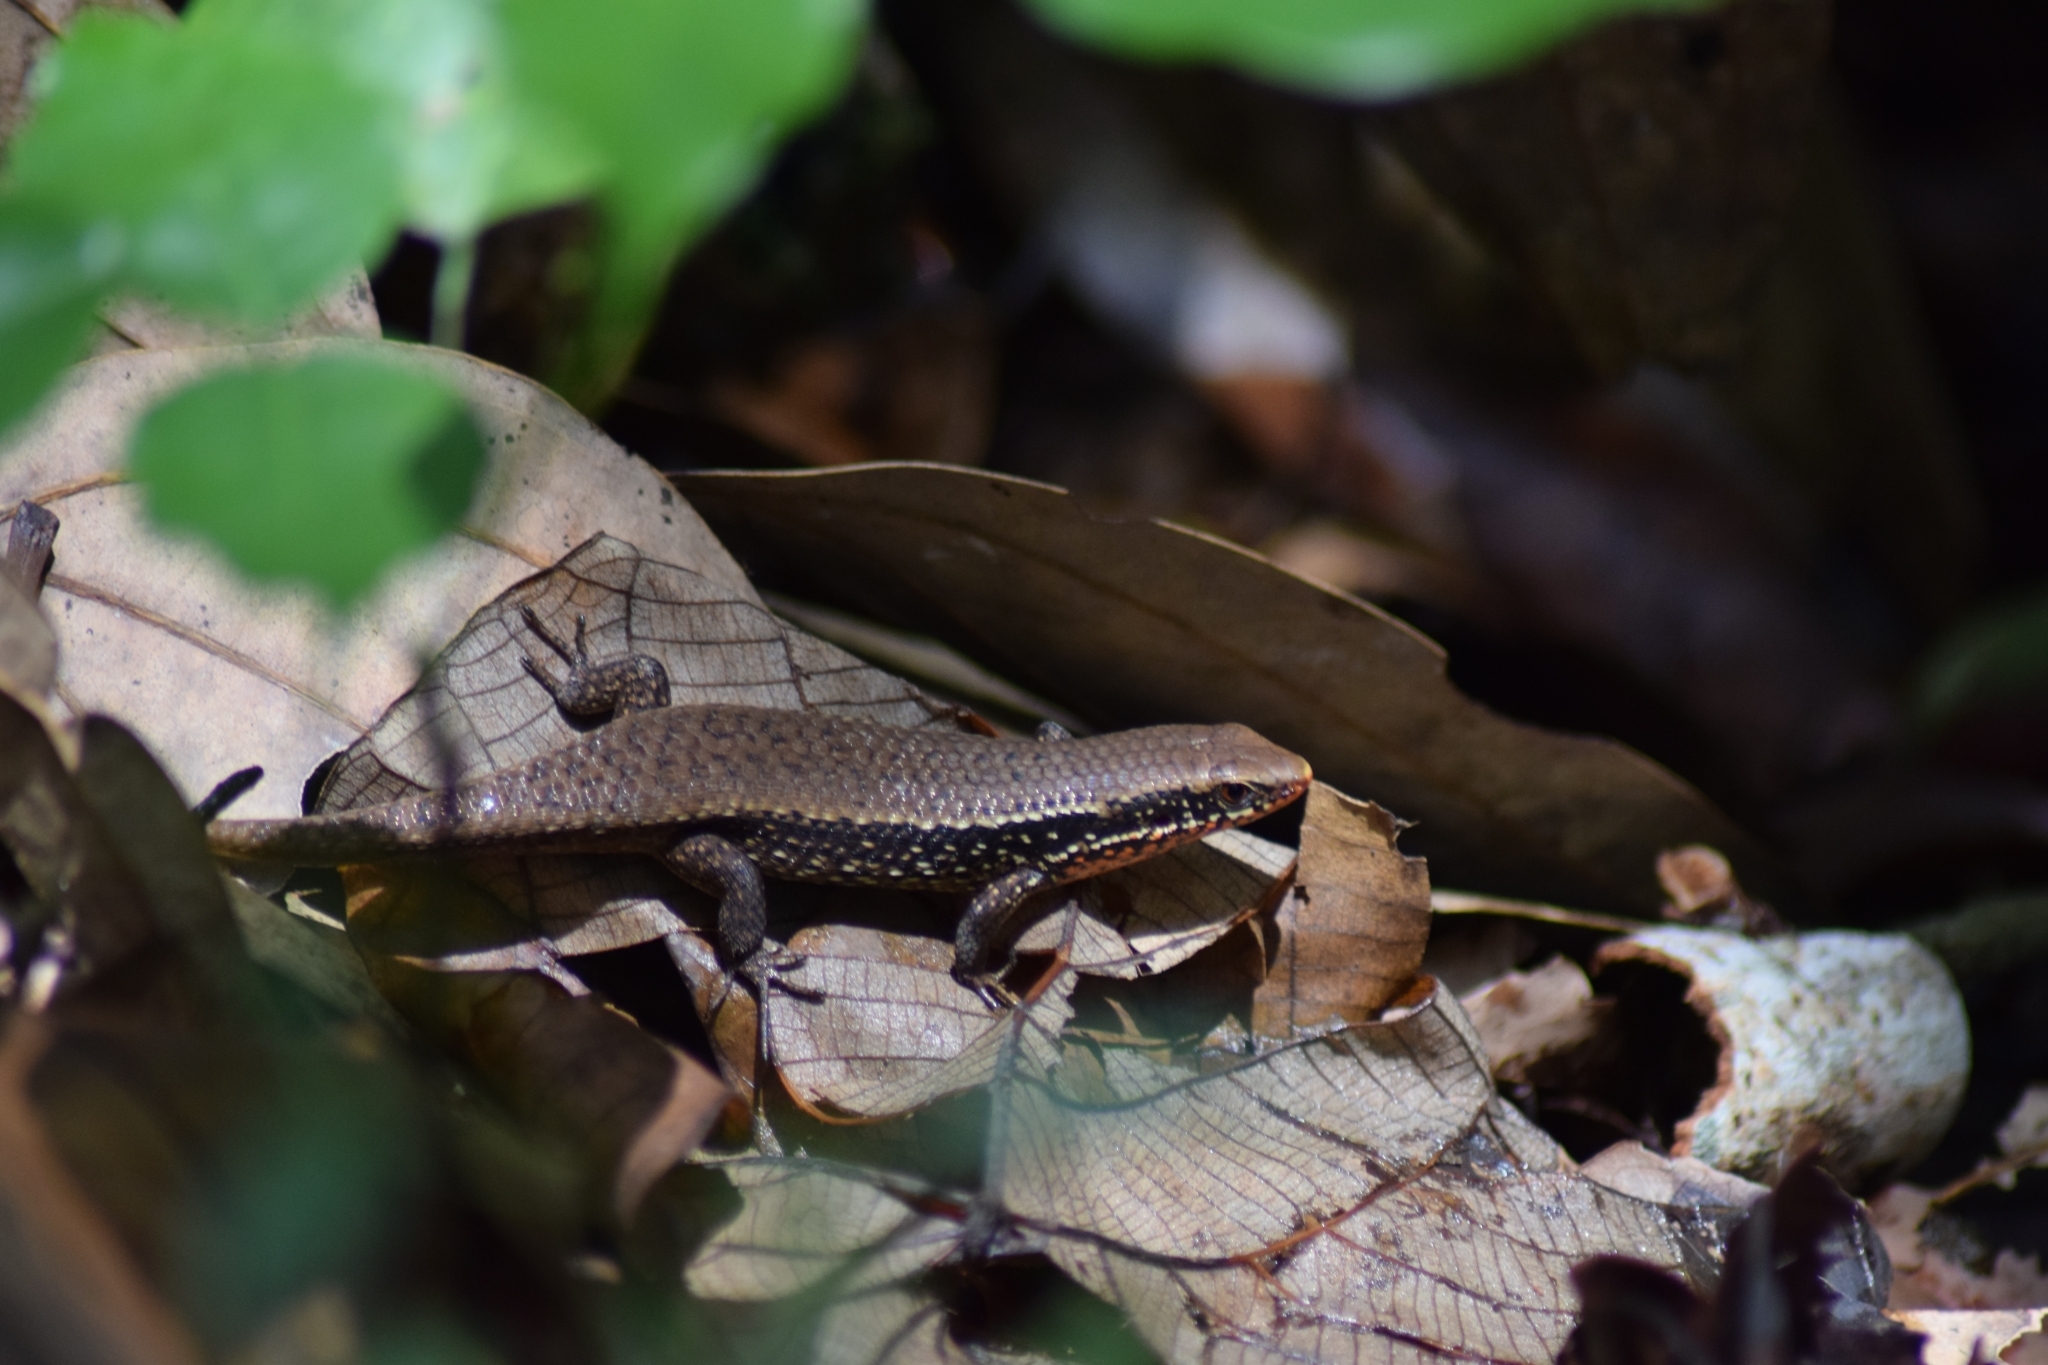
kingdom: Animalia
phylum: Chordata
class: Squamata
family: Scincidae
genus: Eutropis
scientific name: Eutropis macularia
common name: Bronze mabuya
